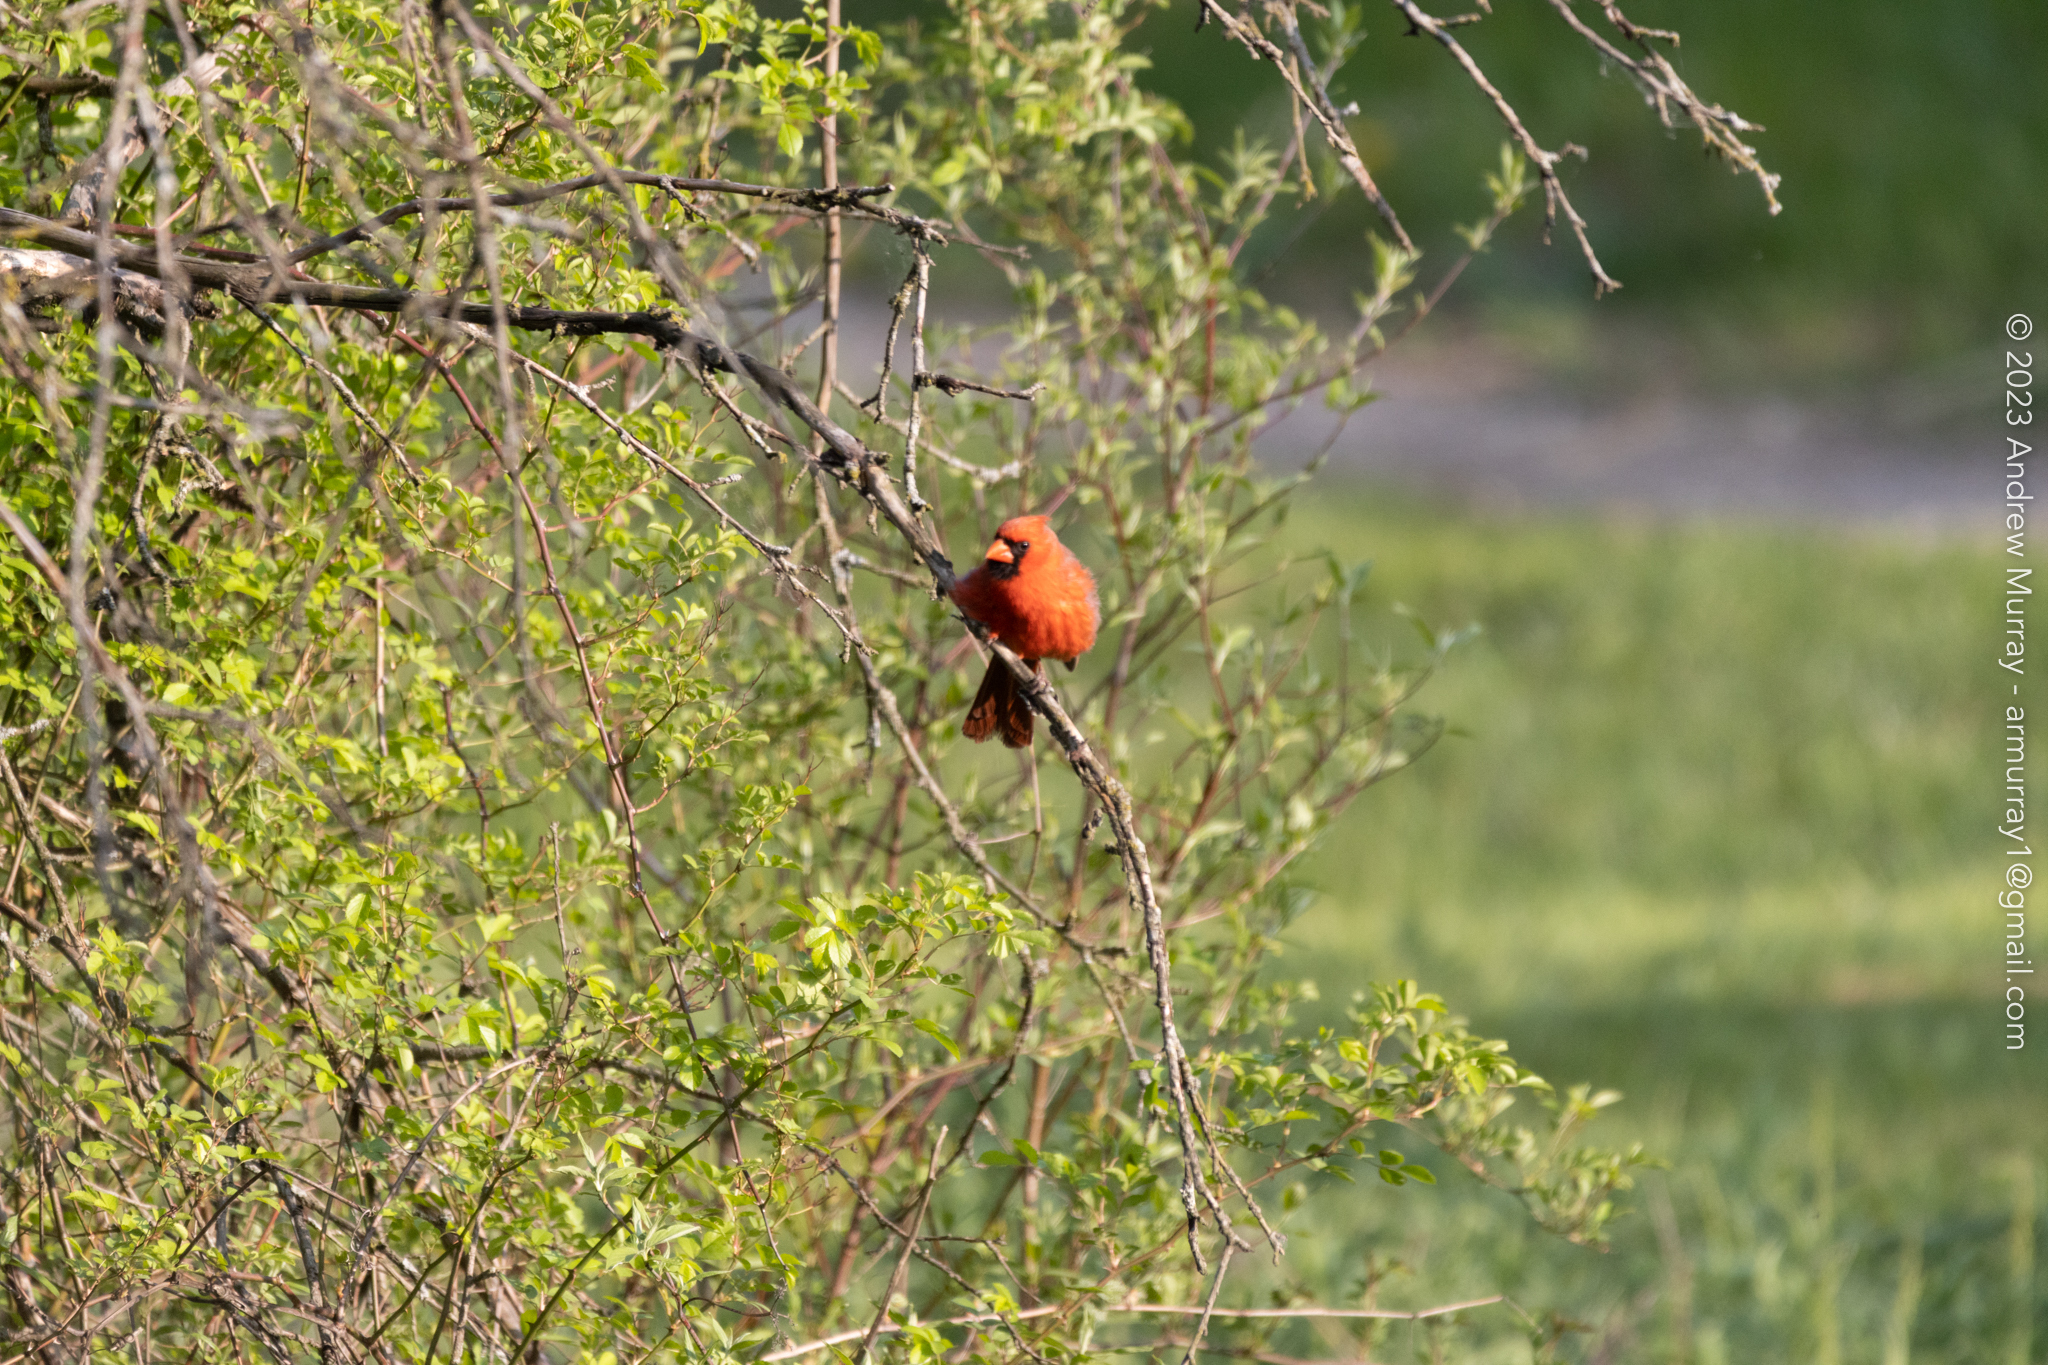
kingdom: Animalia
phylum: Chordata
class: Aves
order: Passeriformes
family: Cardinalidae
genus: Cardinalis
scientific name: Cardinalis cardinalis
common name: Northern cardinal
